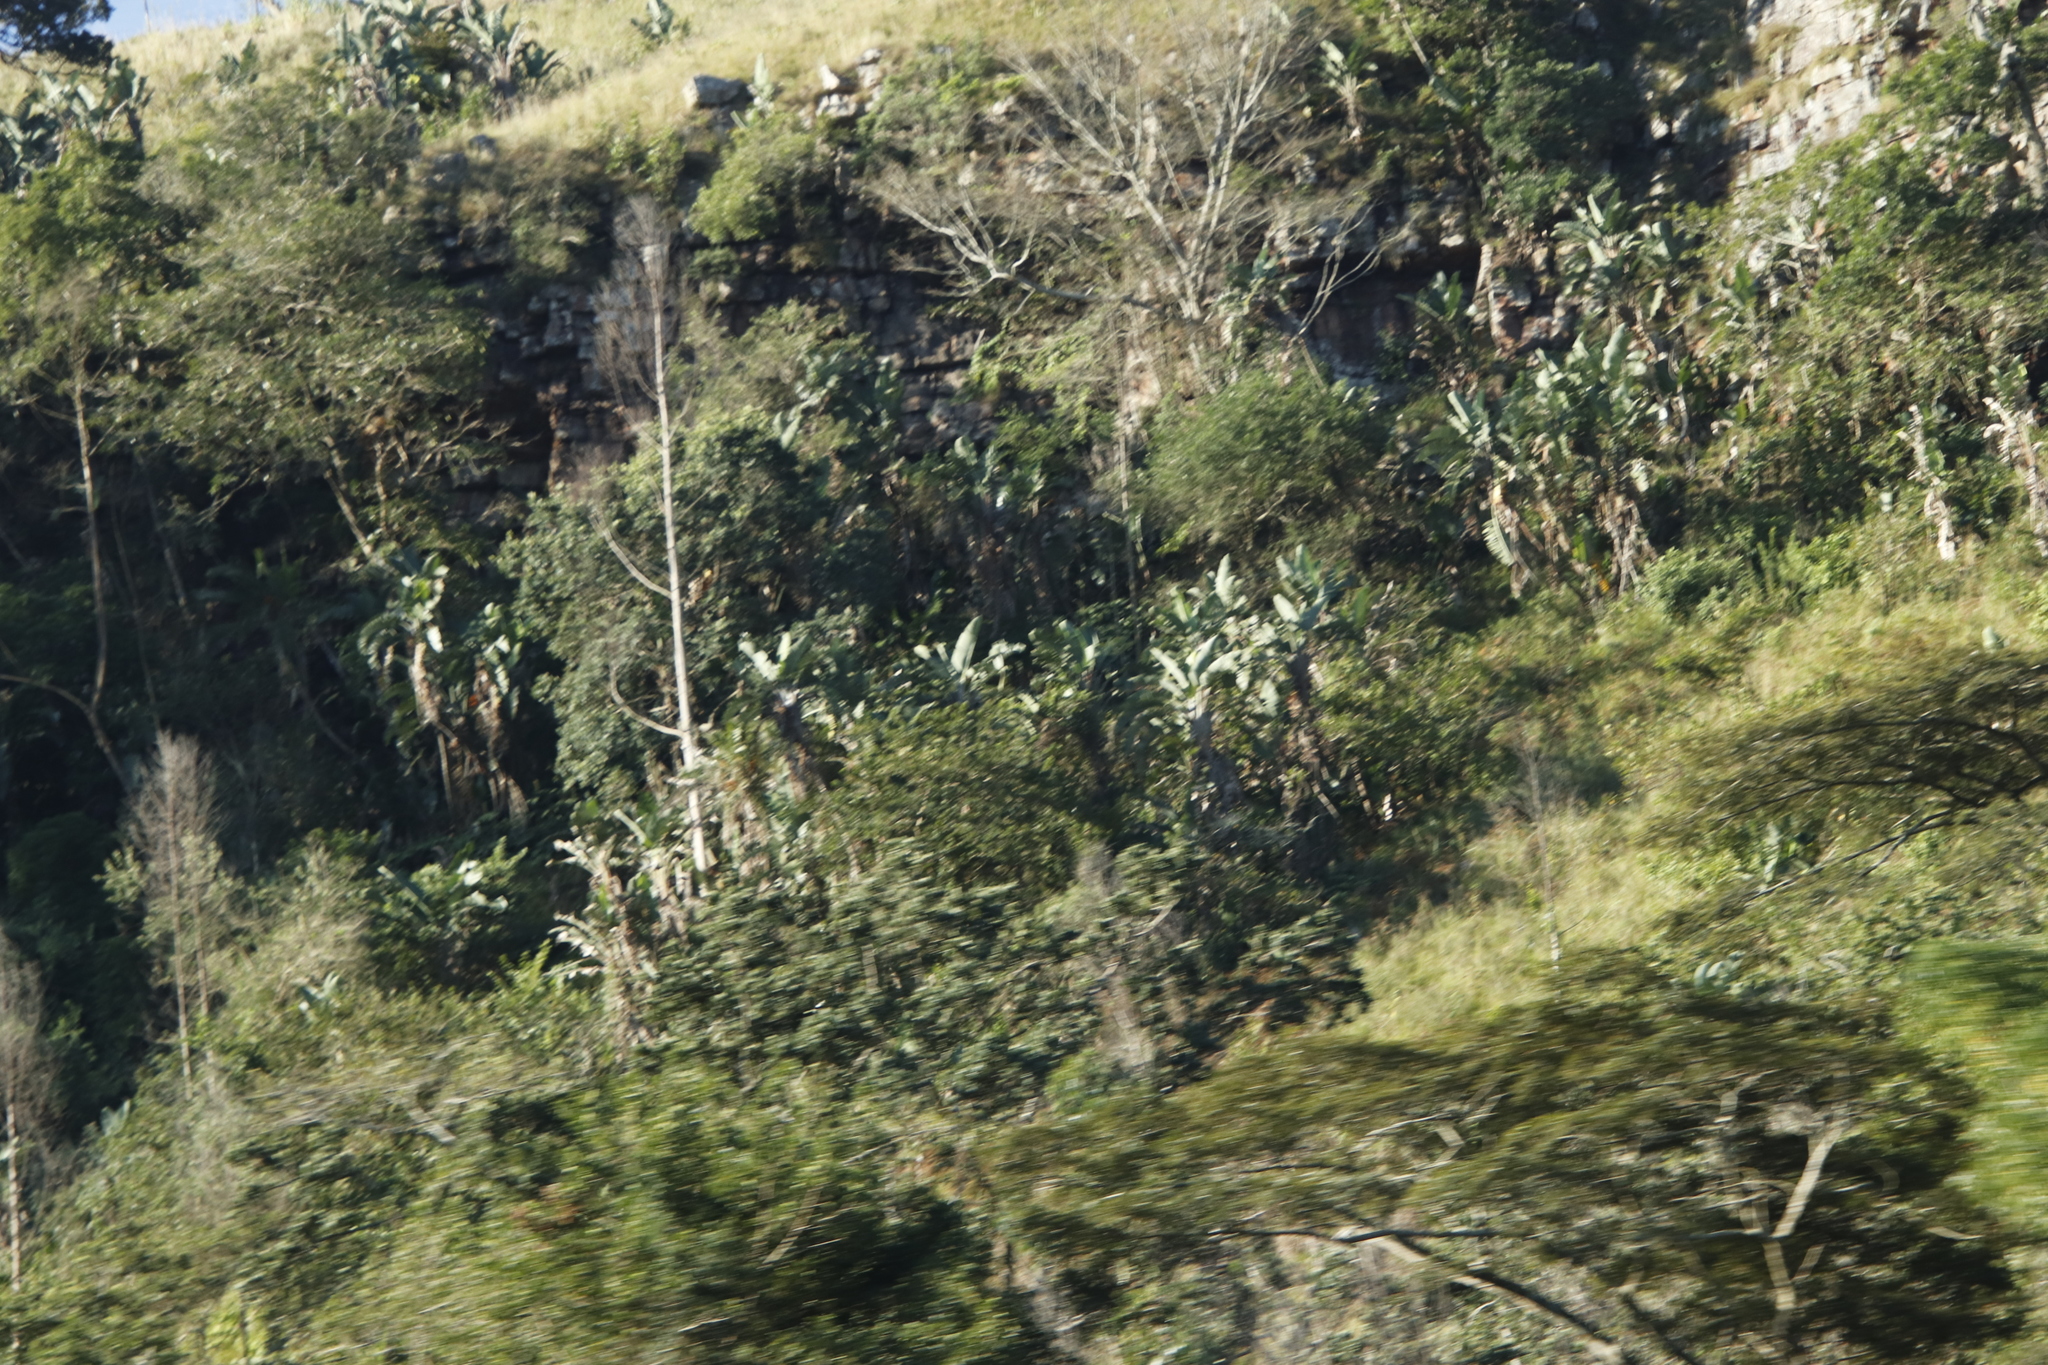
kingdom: Plantae
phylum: Tracheophyta
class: Liliopsida
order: Zingiberales
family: Strelitziaceae
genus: Strelitzia
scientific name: Strelitzia nicolai
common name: Bird-of-paradise tree
